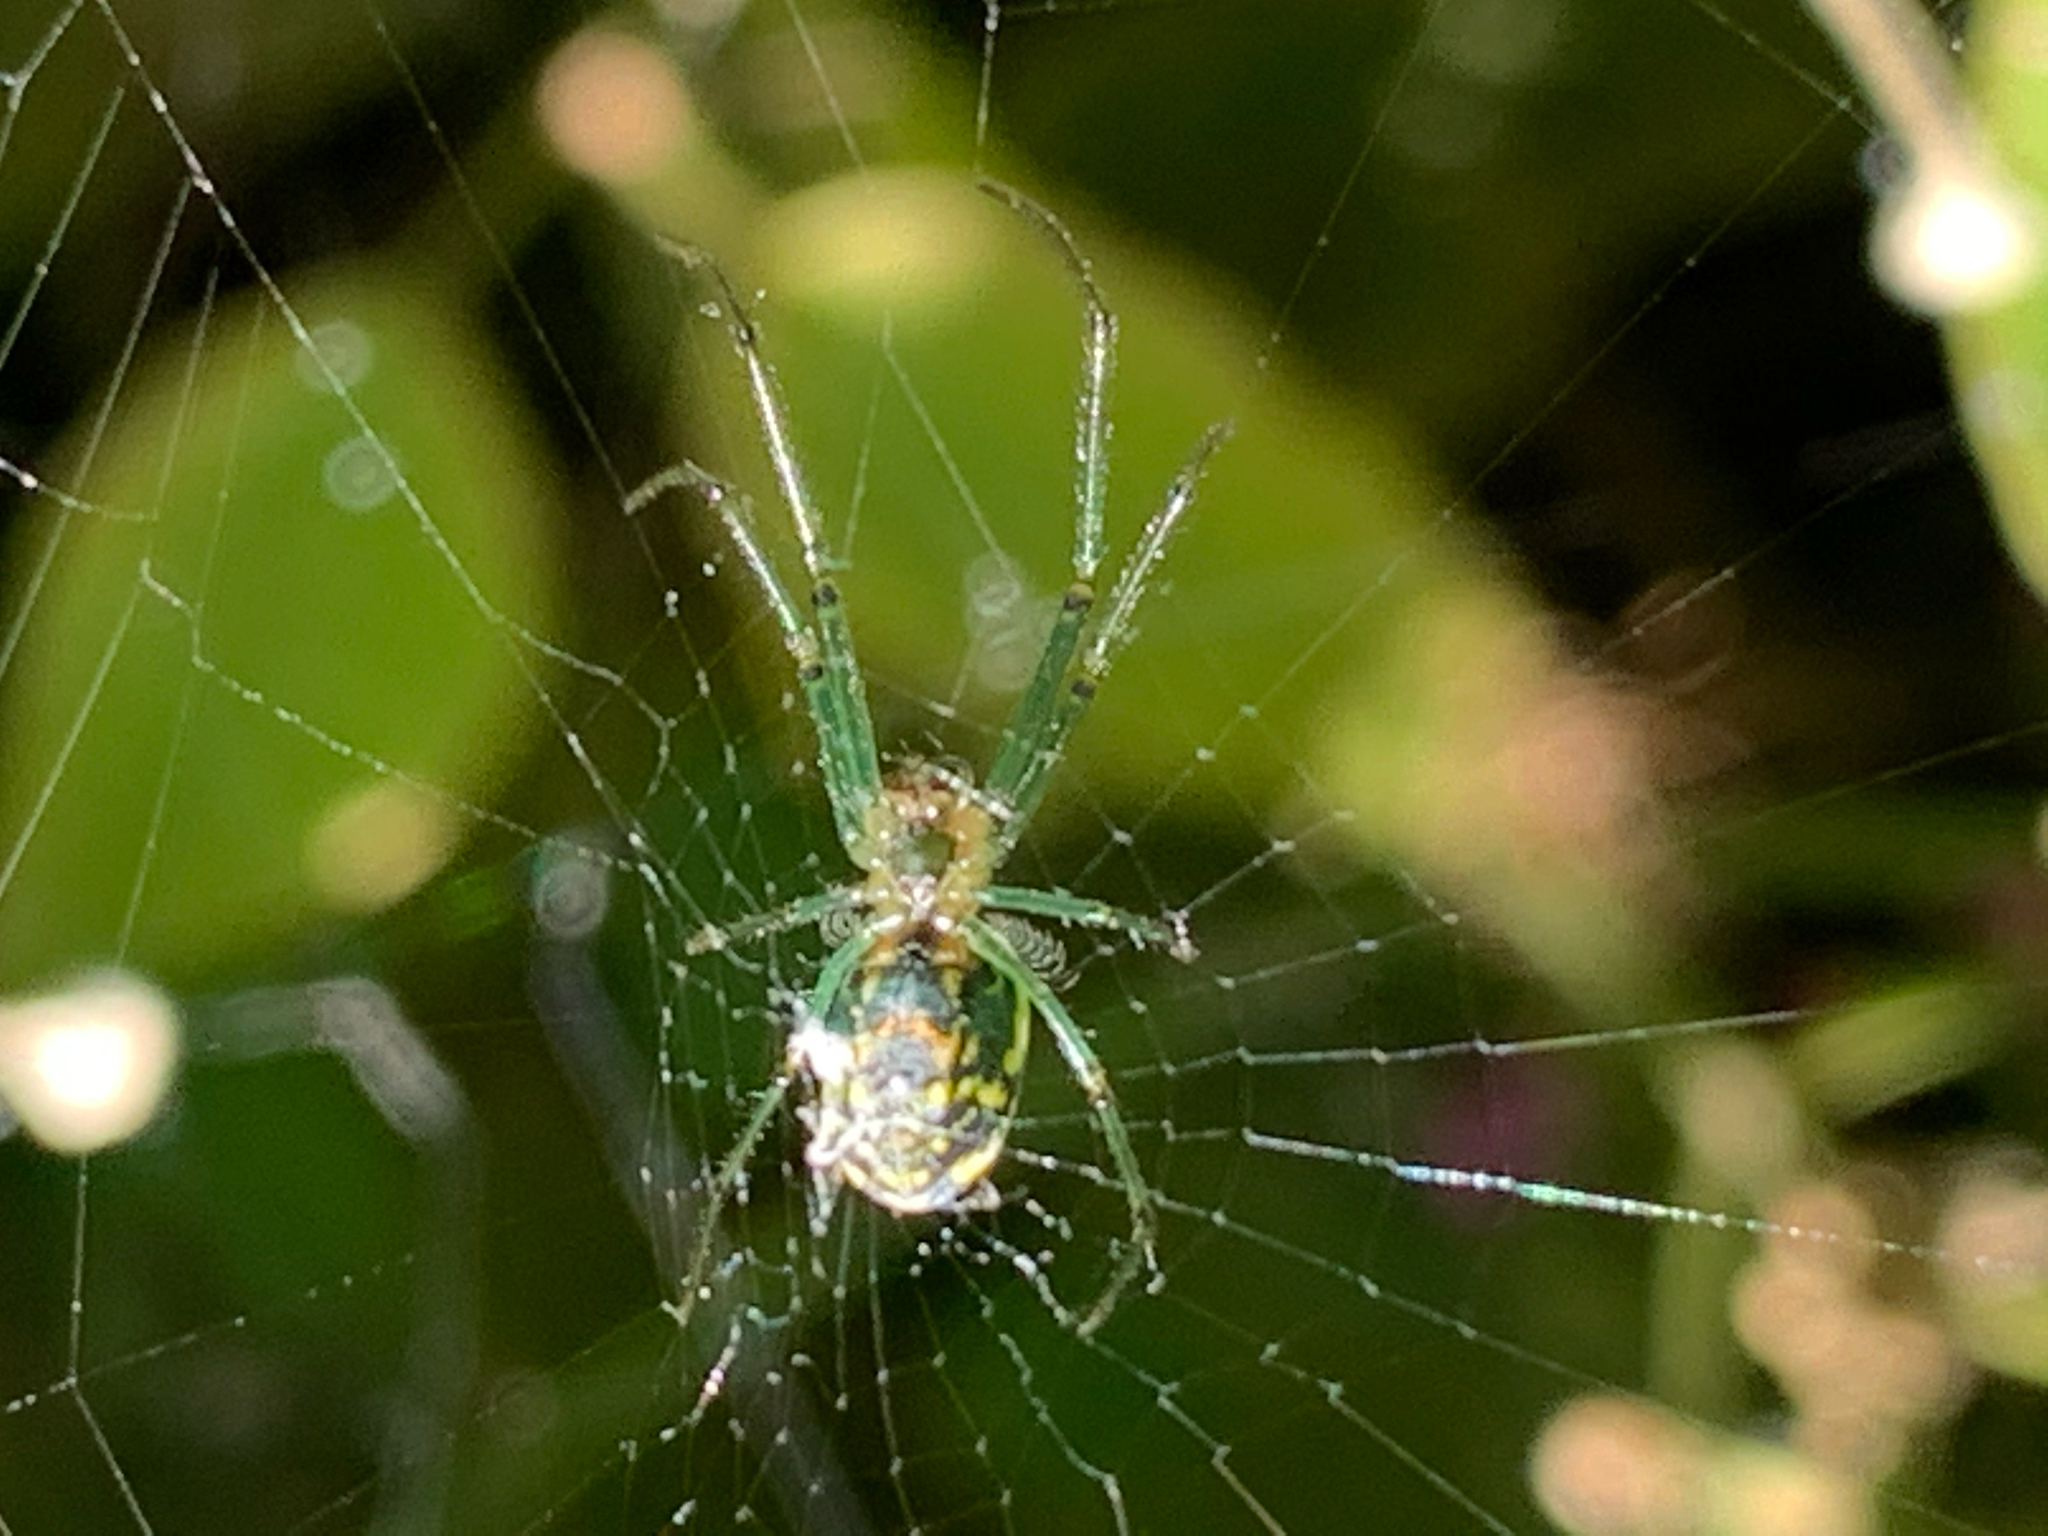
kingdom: Animalia
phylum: Arthropoda
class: Arachnida
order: Araneae
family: Tetragnathidae
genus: Leucauge
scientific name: Leucauge venusta
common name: Longjawed orb weavers
